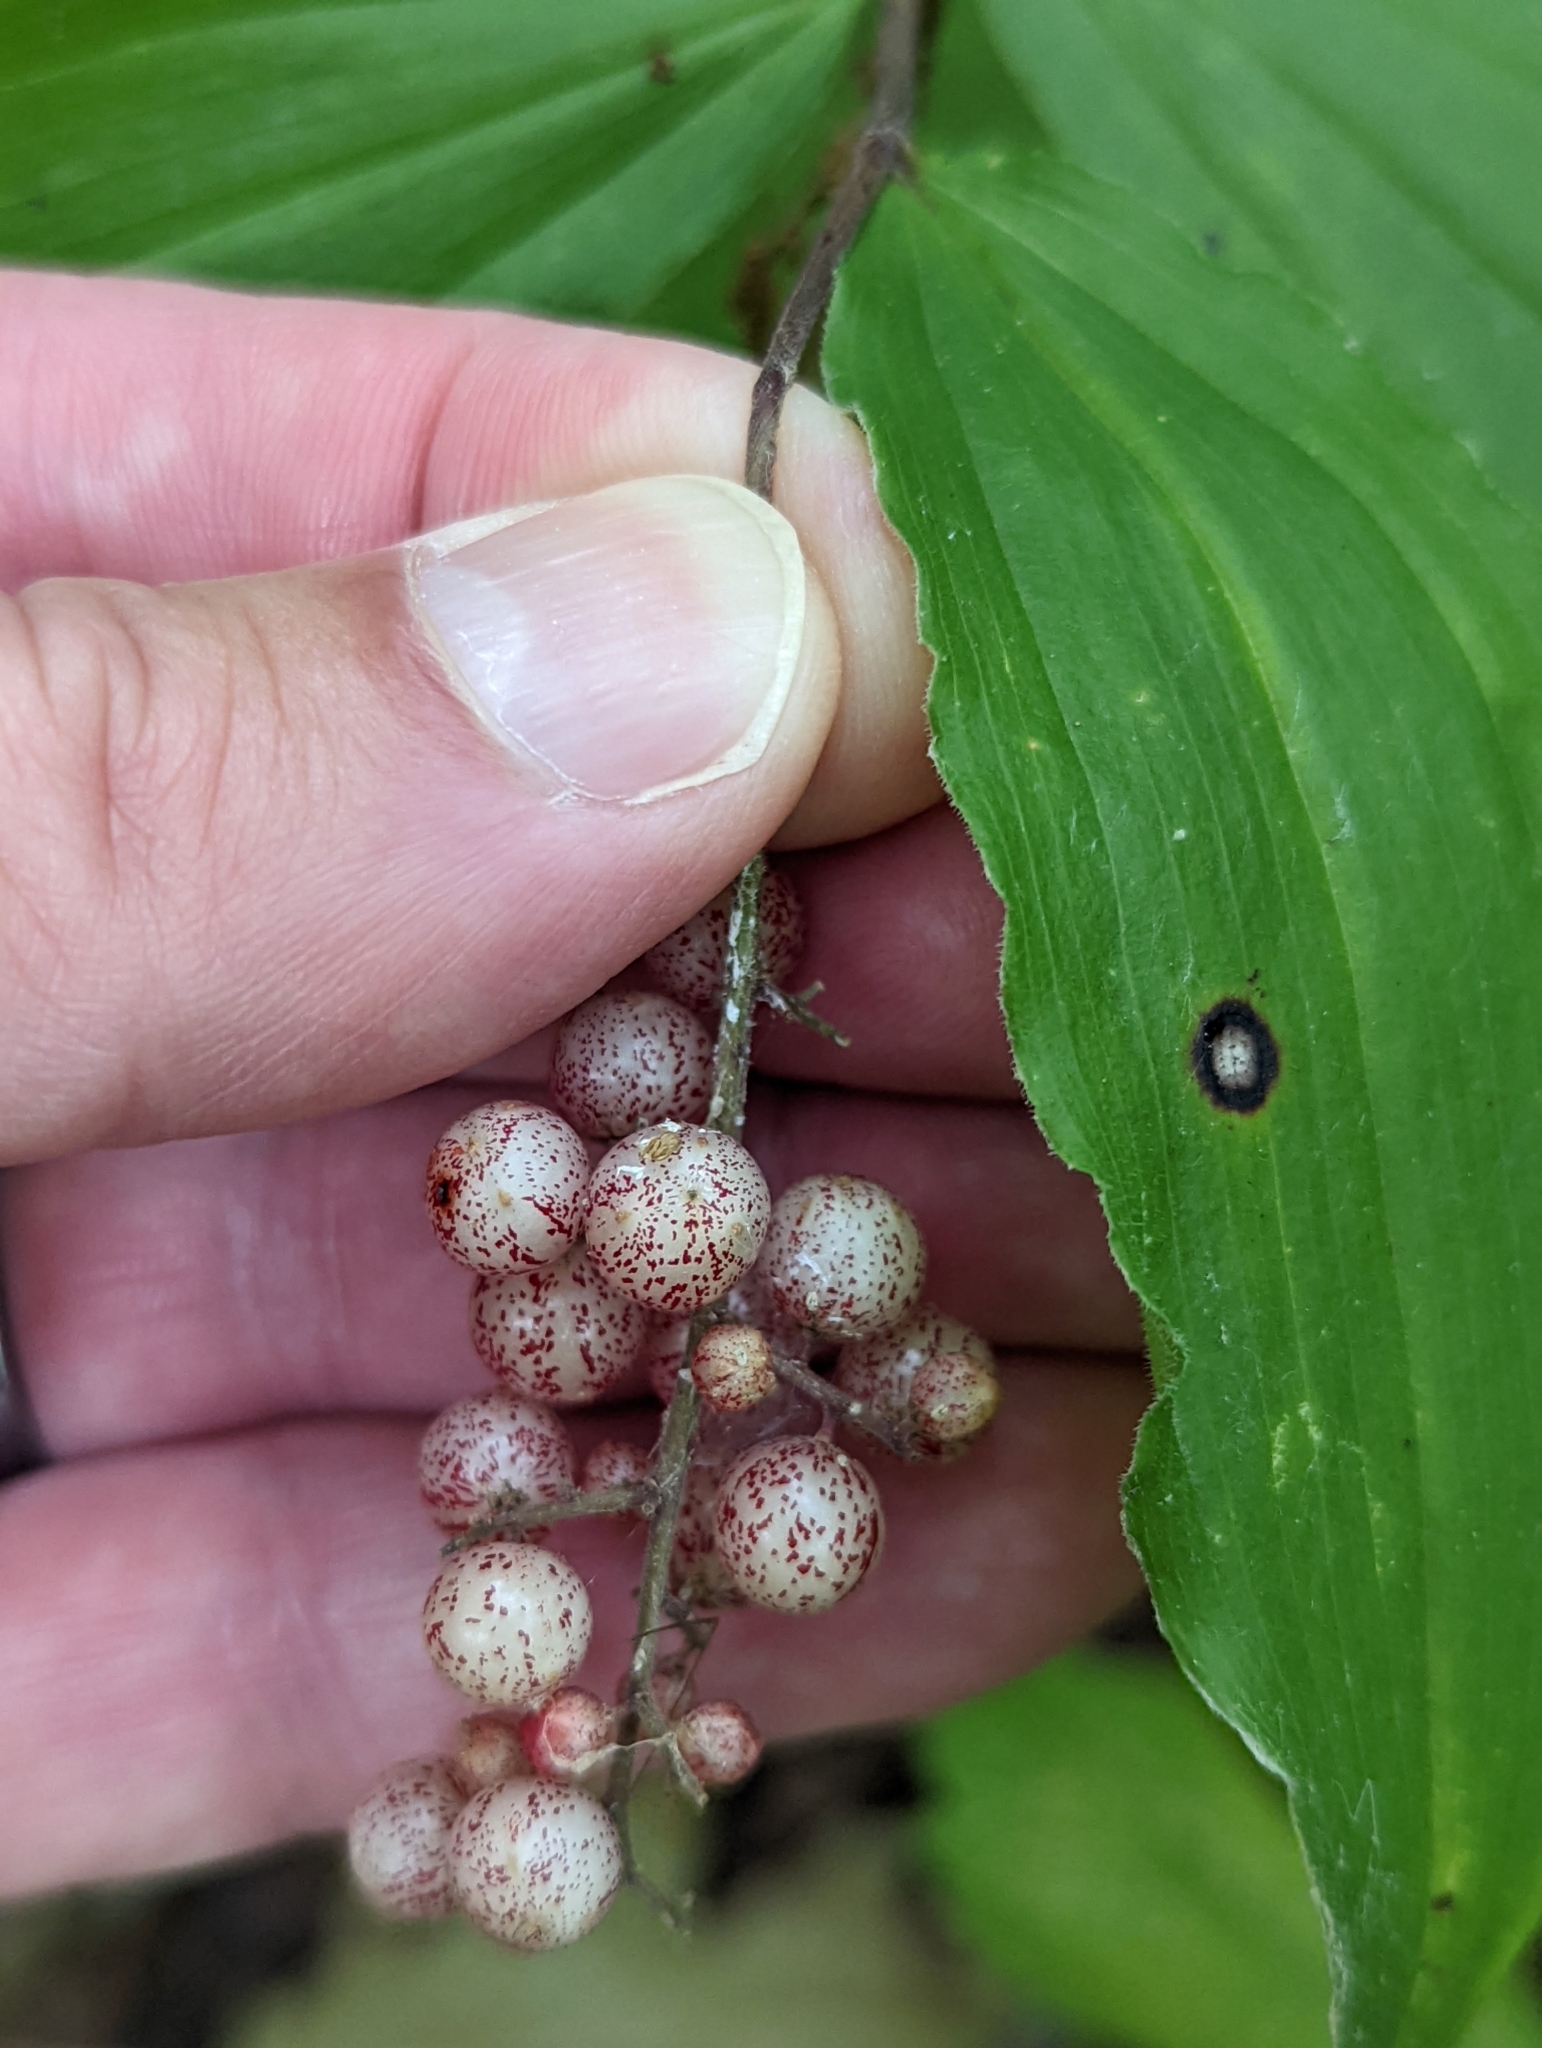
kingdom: Plantae
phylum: Tracheophyta
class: Liliopsida
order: Asparagales
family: Asparagaceae
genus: Maianthemum
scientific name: Maianthemum racemosum
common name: False spikenard
